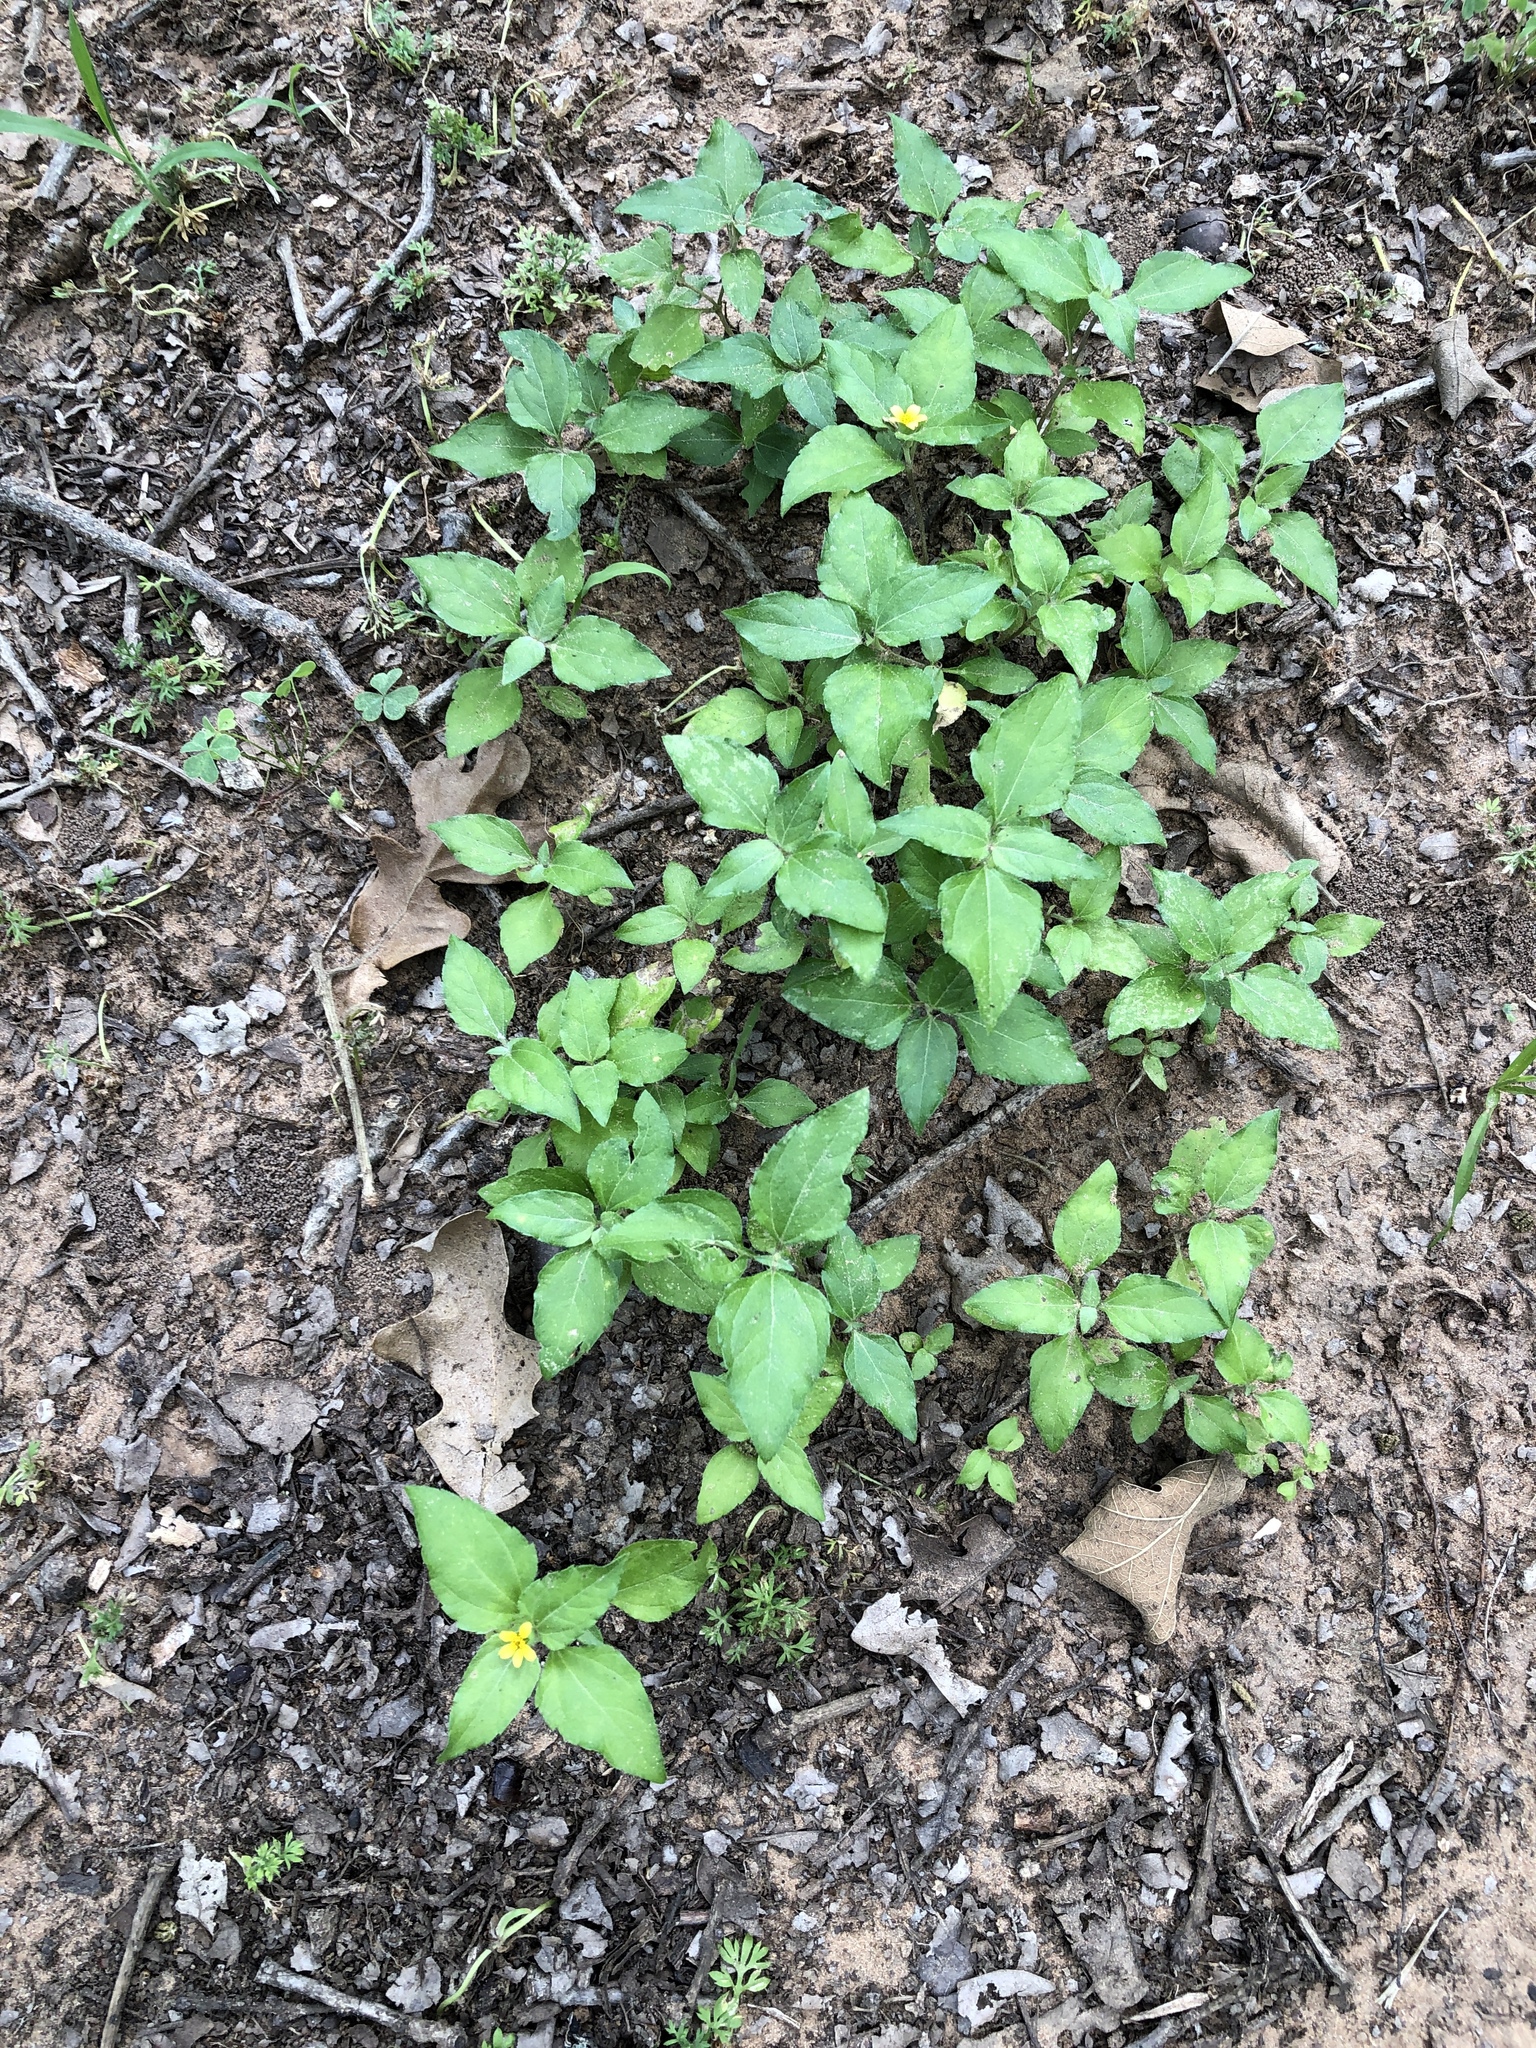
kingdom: Plantae
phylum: Tracheophyta
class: Magnoliopsida
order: Asterales
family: Asteraceae
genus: Calyptocarpus
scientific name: Calyptocarpus vialis
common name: Straggler daisy
